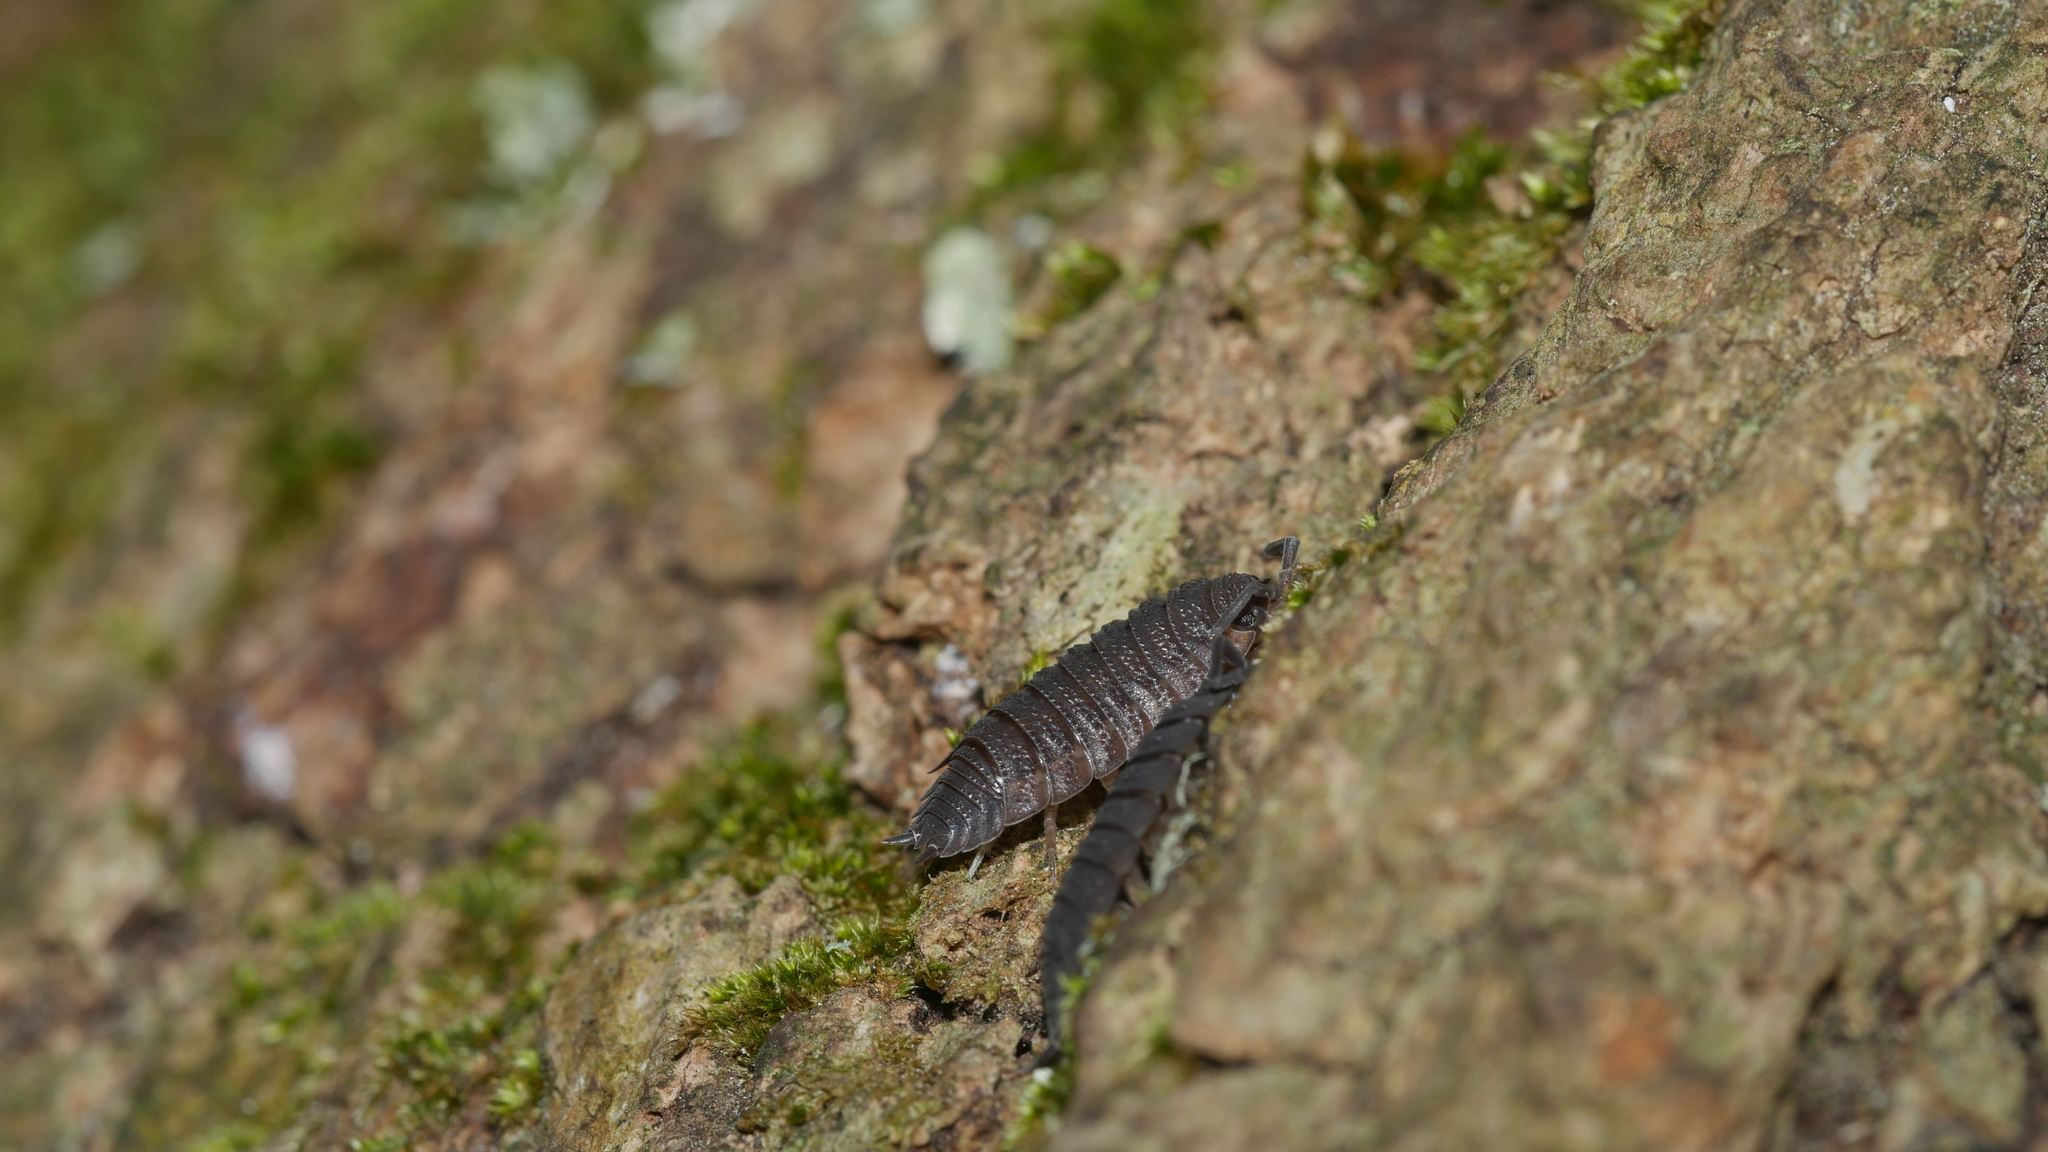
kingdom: Animalia
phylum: Arthropoda
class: Malacostraca
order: Isopoda
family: Porcellionidae
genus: Porcellio
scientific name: Porcellio scaber
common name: Common rough woodlouse
